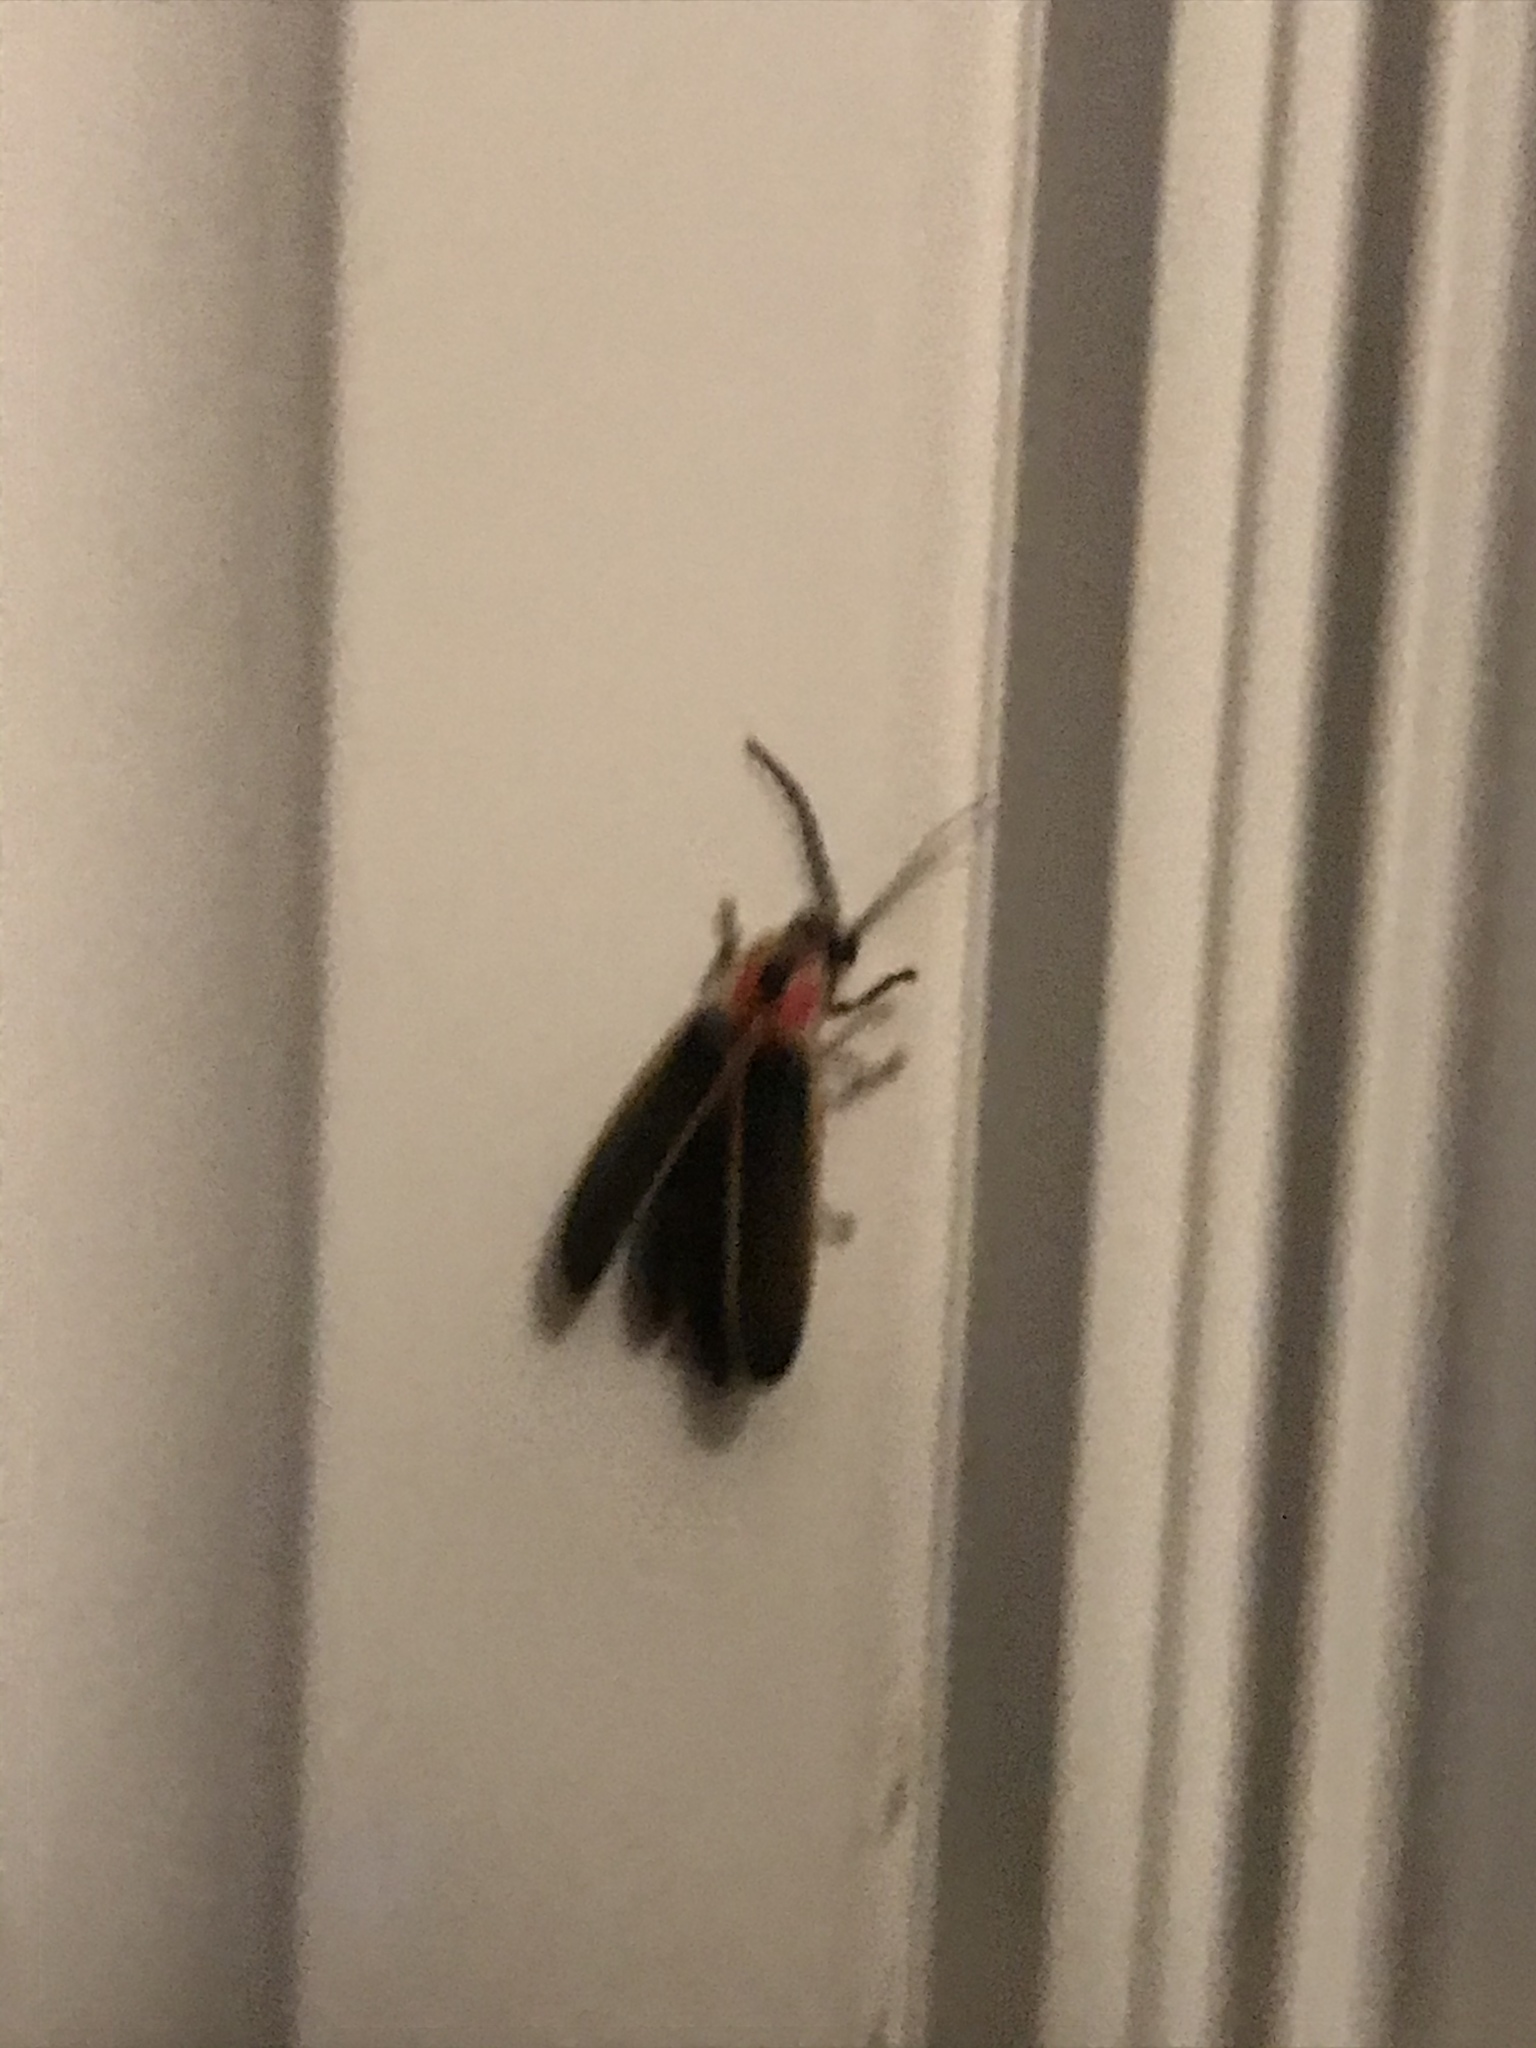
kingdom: Animalia
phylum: Arthropoda
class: Insecta
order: Coleoptera
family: Lampyridae
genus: Photinus
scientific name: Photinus pyralis
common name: Big dipper firefly
